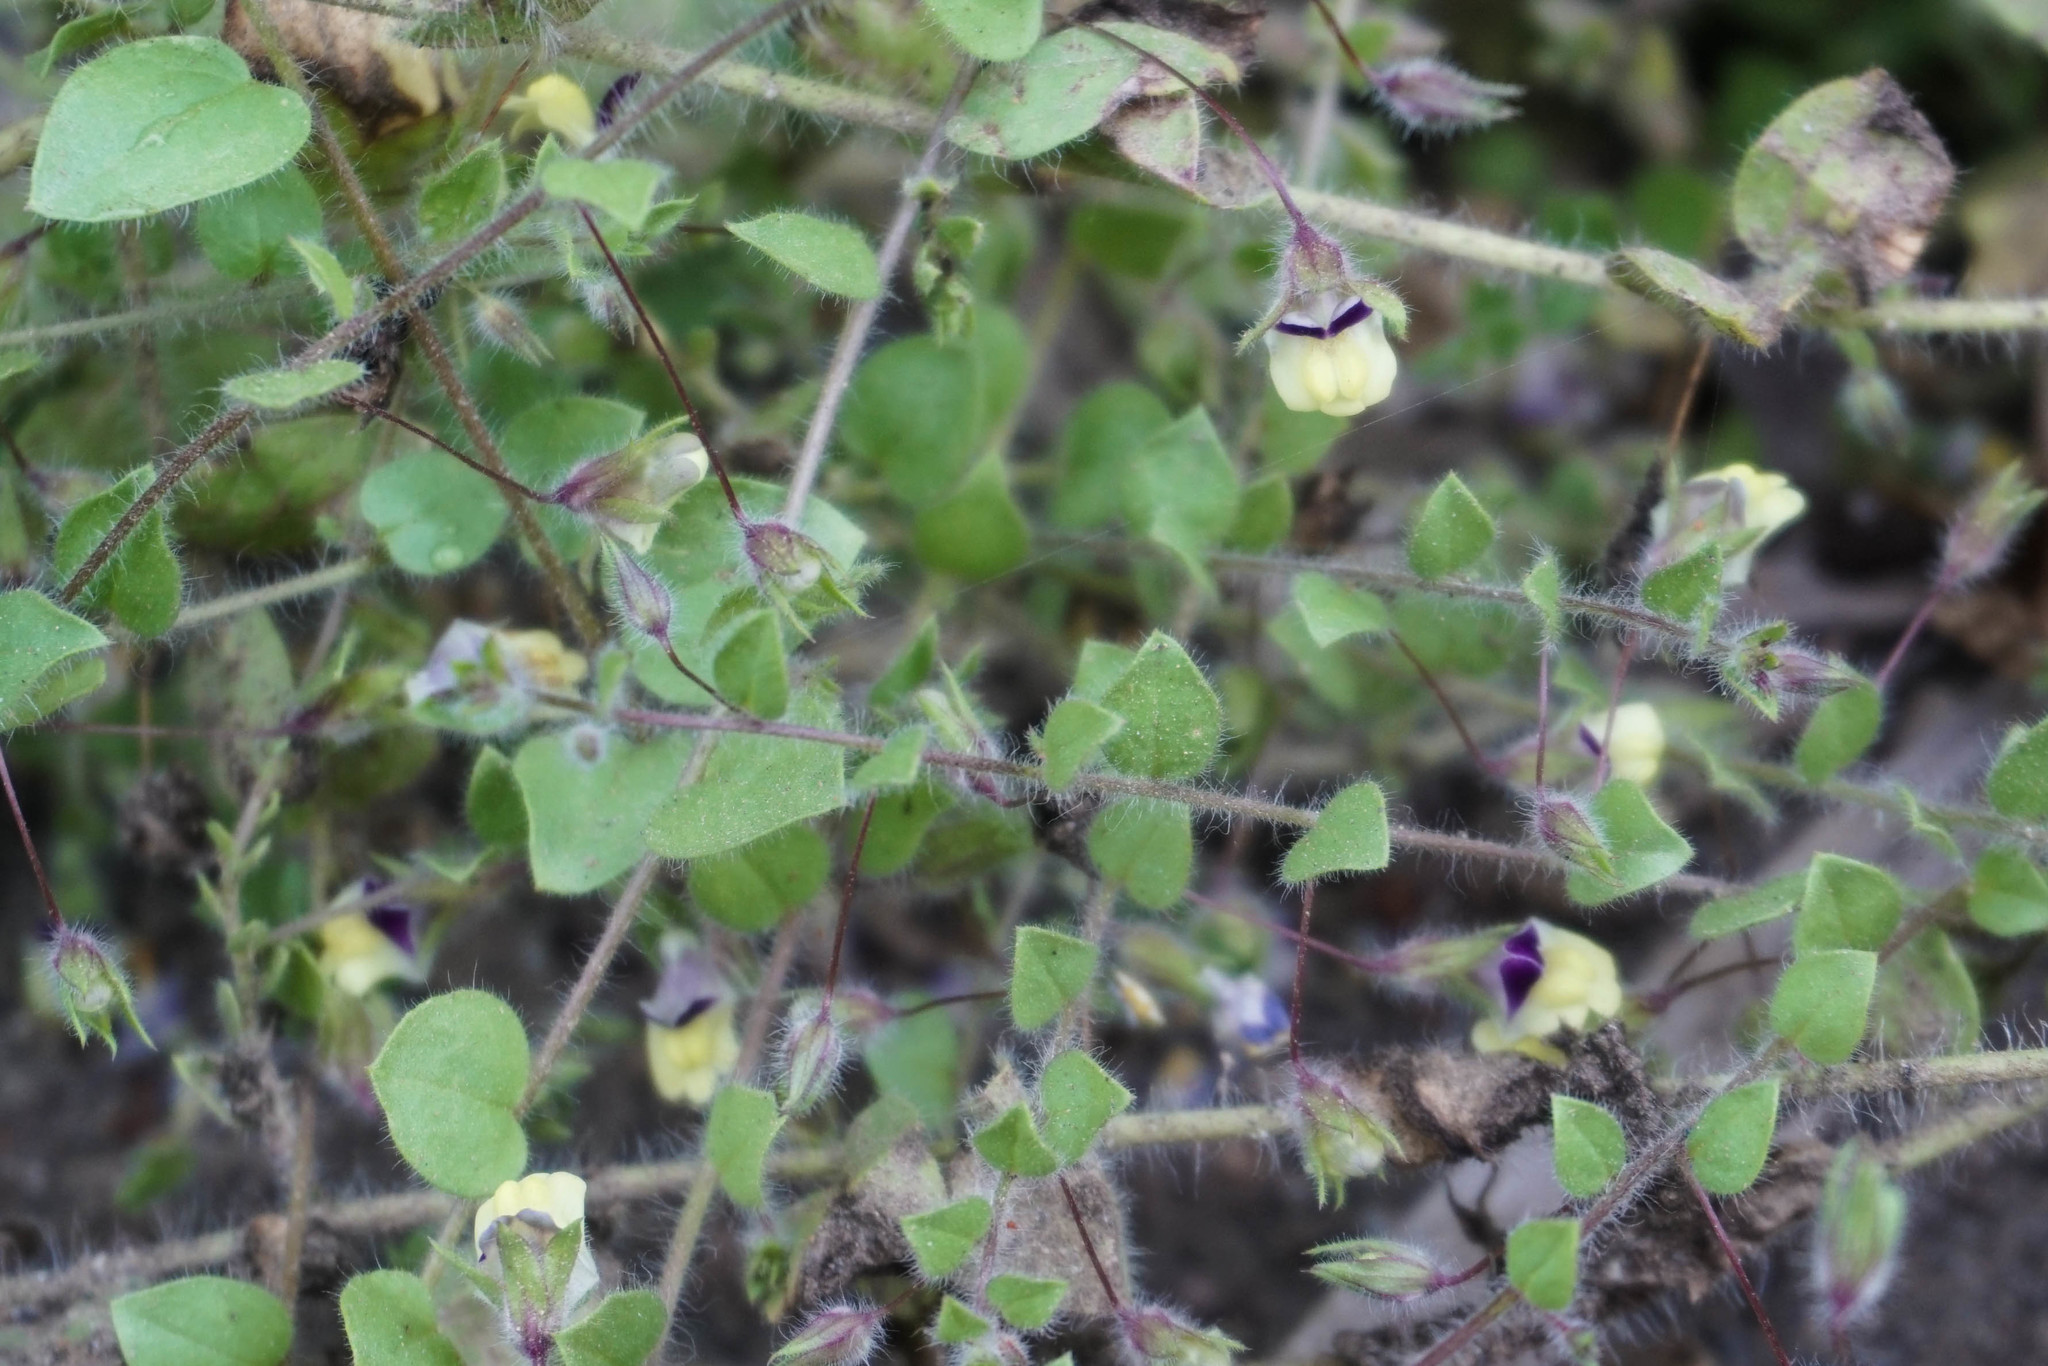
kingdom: Plantae
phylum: Tracheophyta
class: Magnoliopsida
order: Lamiales
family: Plantaginaceae
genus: Kickxia
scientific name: Kickxia elatine
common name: Sharp-leaved fluellen
